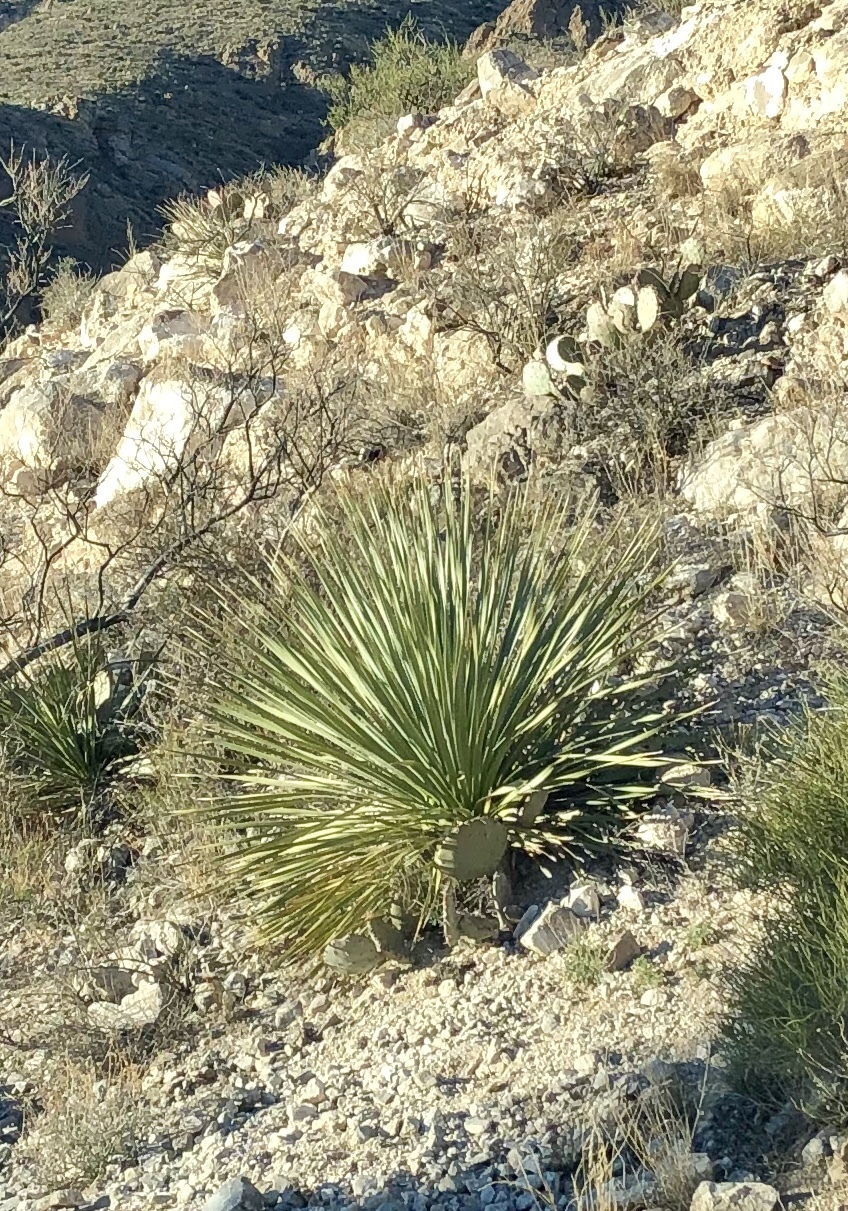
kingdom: Plantae
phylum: Tracheophyta
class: Liliopsida
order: Asparagales
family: Asparagaceae
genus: Dasylirion
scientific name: Dasylirion wheeleri
